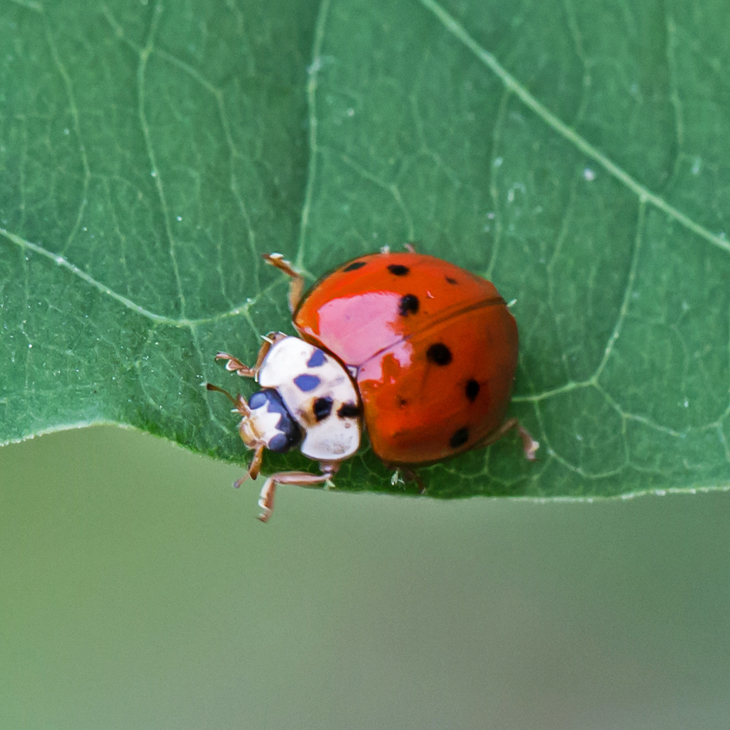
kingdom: Animalia
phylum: Arthropoda
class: Insecta
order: Coleoptera
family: Coccinellidae
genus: Harmonia
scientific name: Harmonia axyridis
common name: Harlequin ladybird
